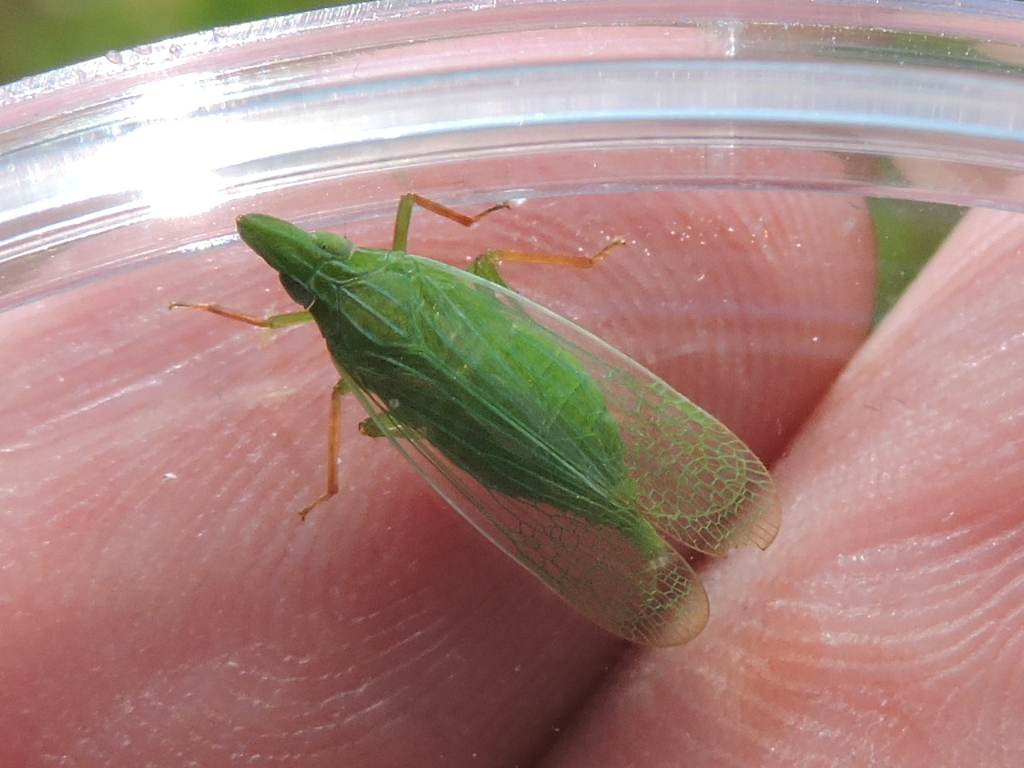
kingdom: Animalia
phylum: Arthropoda
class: Insecta
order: Hemiptera
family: Dictyopharidae
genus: Rhynchomitra
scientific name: Rhynchomitra microrhina
